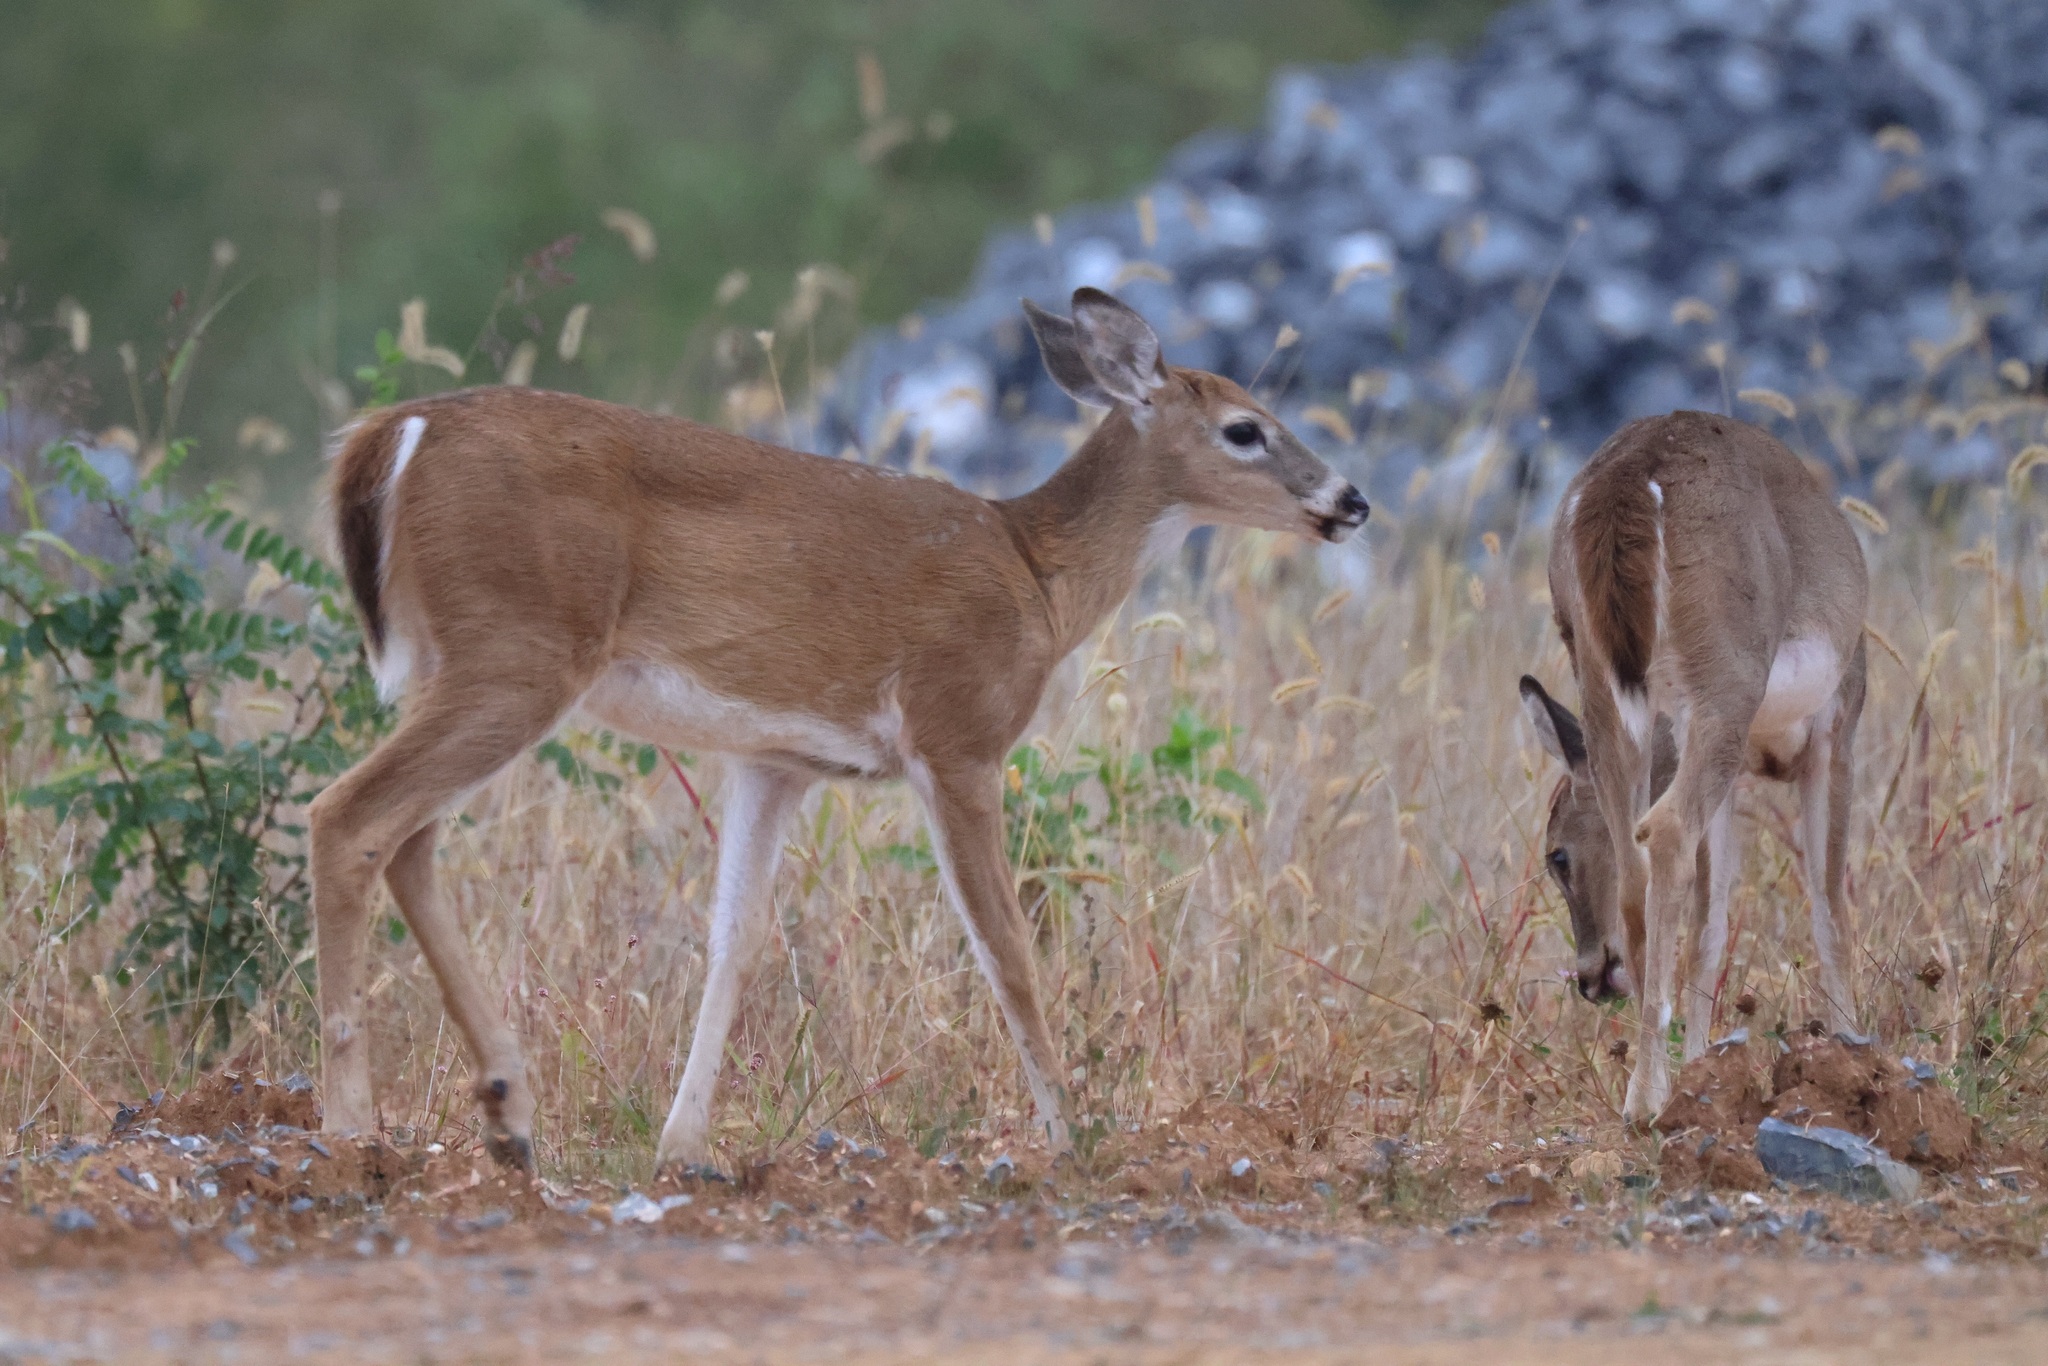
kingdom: Animalia
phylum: Chordata
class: Mammalia
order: Artiodactyla
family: Cervidae
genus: Odocoileus
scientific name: Odocoileus virginianus
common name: White-tailed deer
